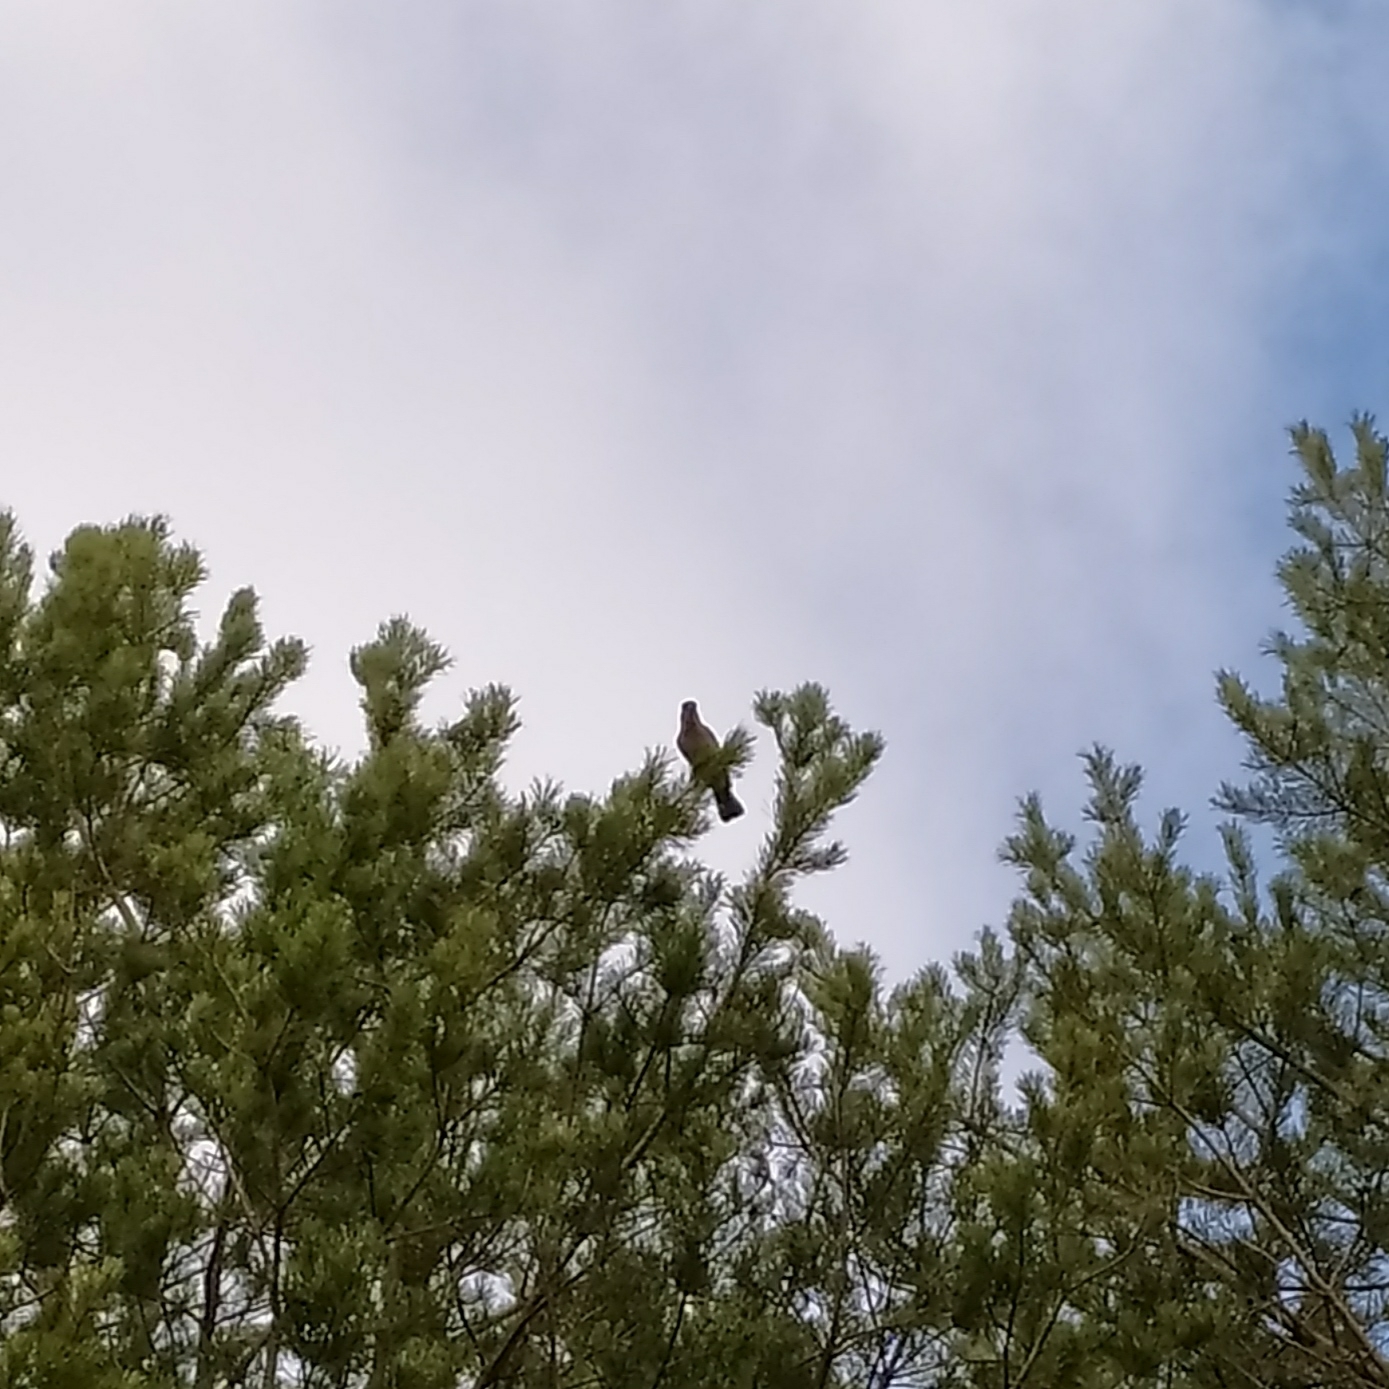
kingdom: Animalia
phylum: Chordata
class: Aves
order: Passeriformes
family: Corvidae
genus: Garrulus
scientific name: Garrulus glandarius
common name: Eurasian jay
